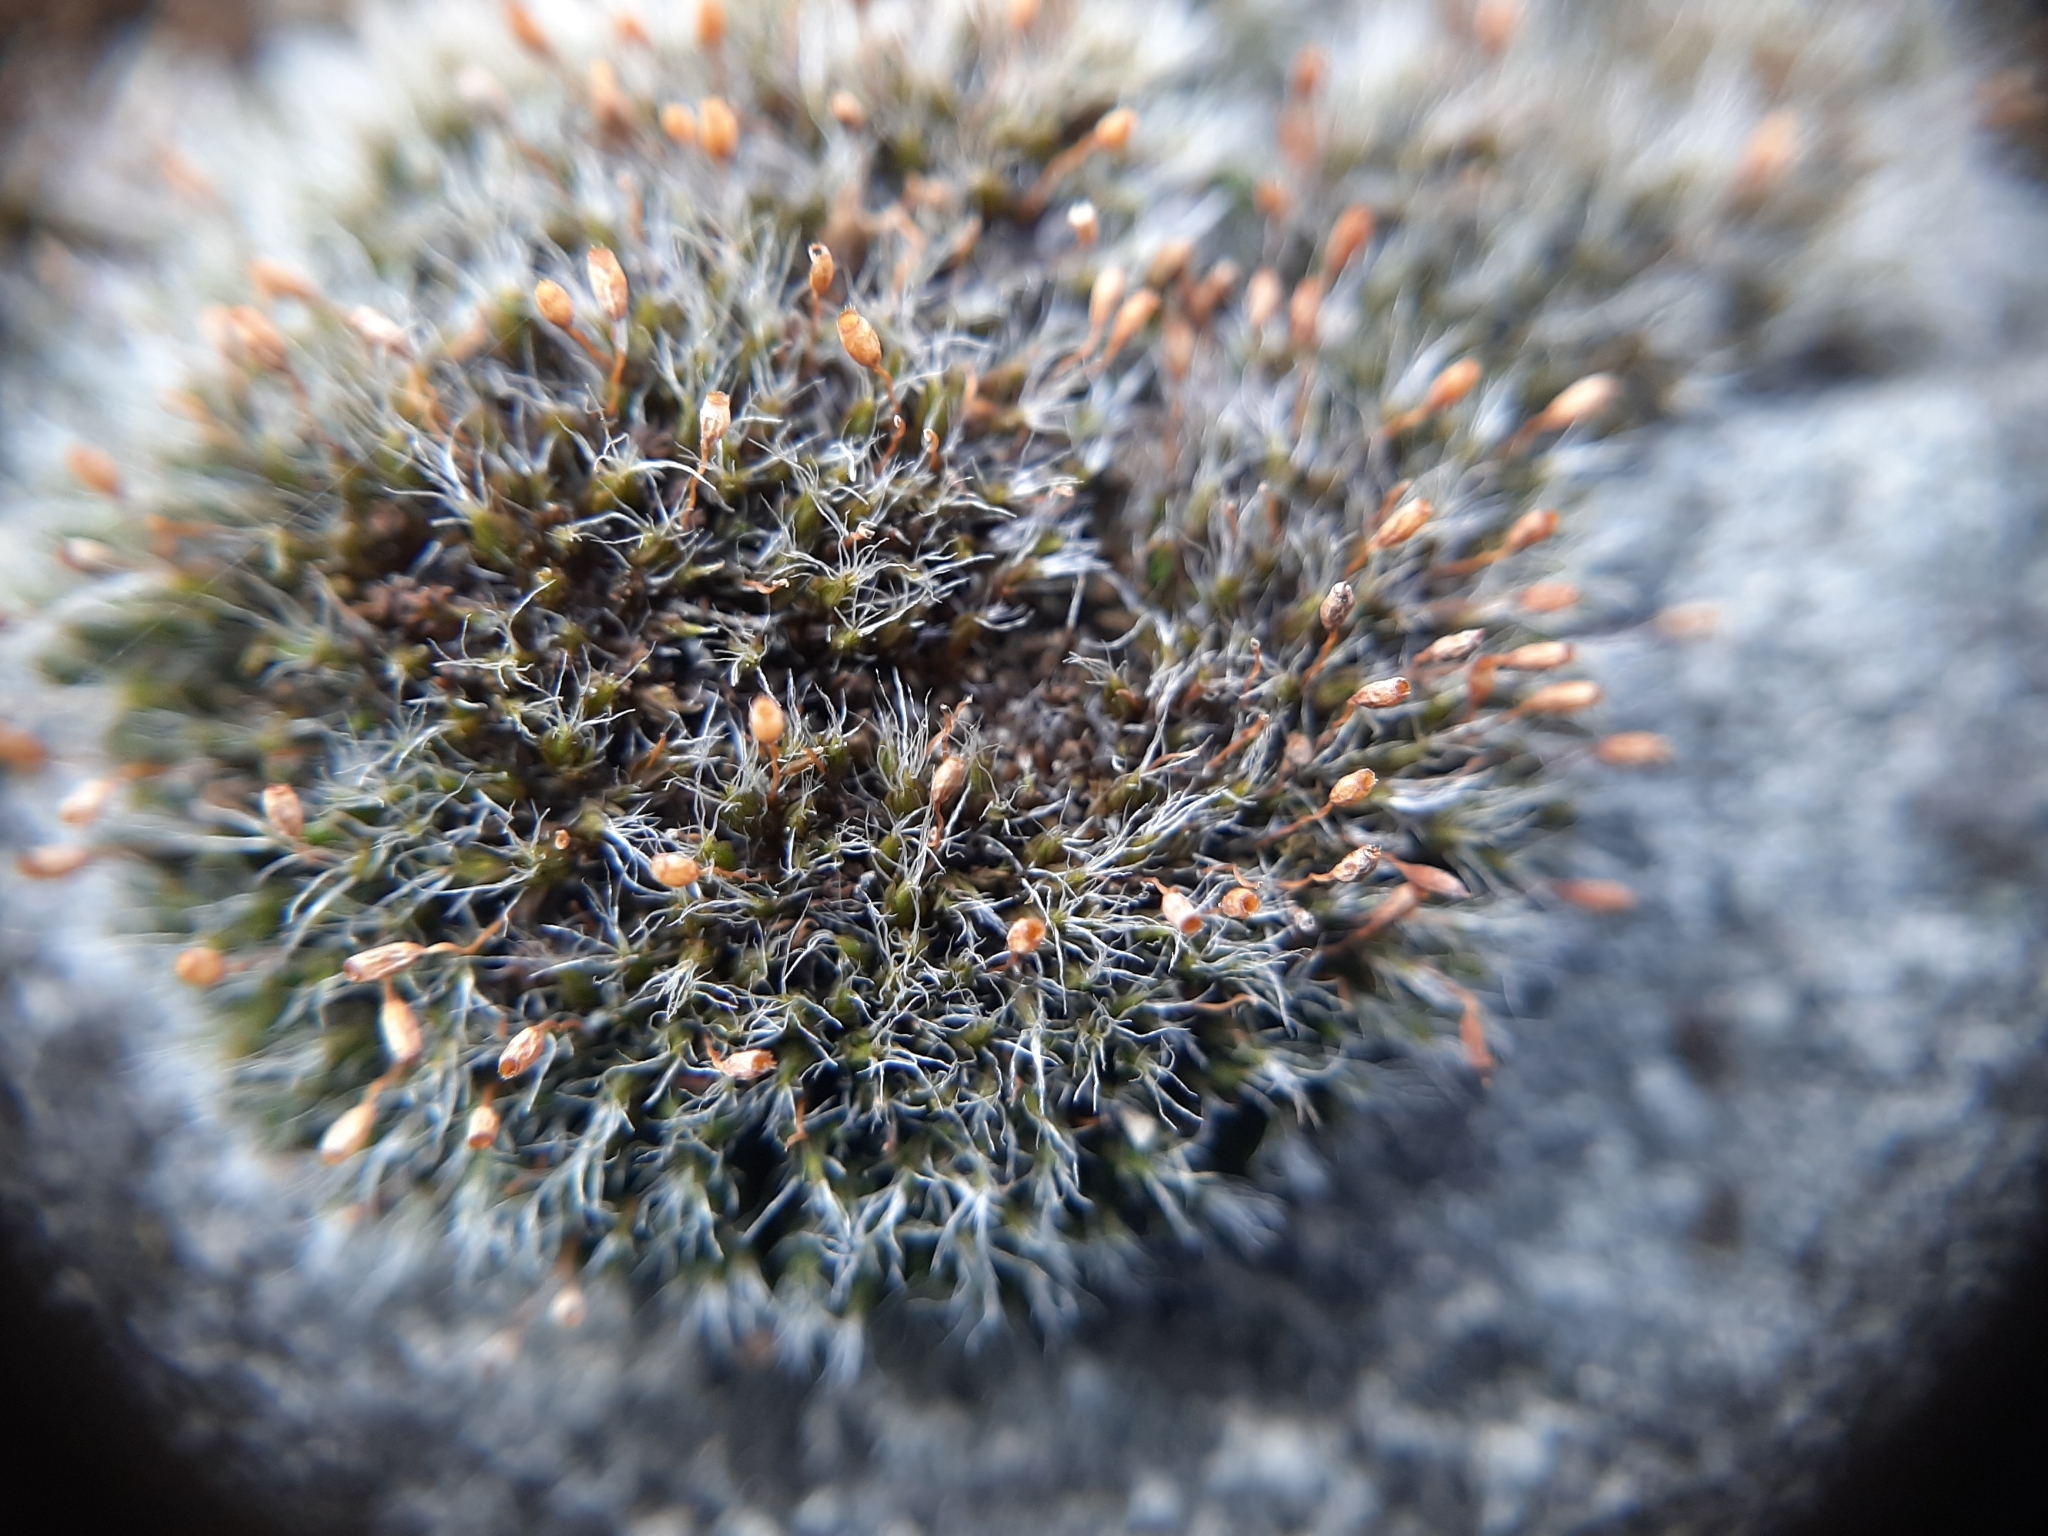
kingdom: Plantae
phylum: Bryophyta
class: Bryopsida
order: Grimmiales
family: Grimmiaceae
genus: Grimmia
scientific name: Grimmia pulvinata
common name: Grey-cushioned grimmia
